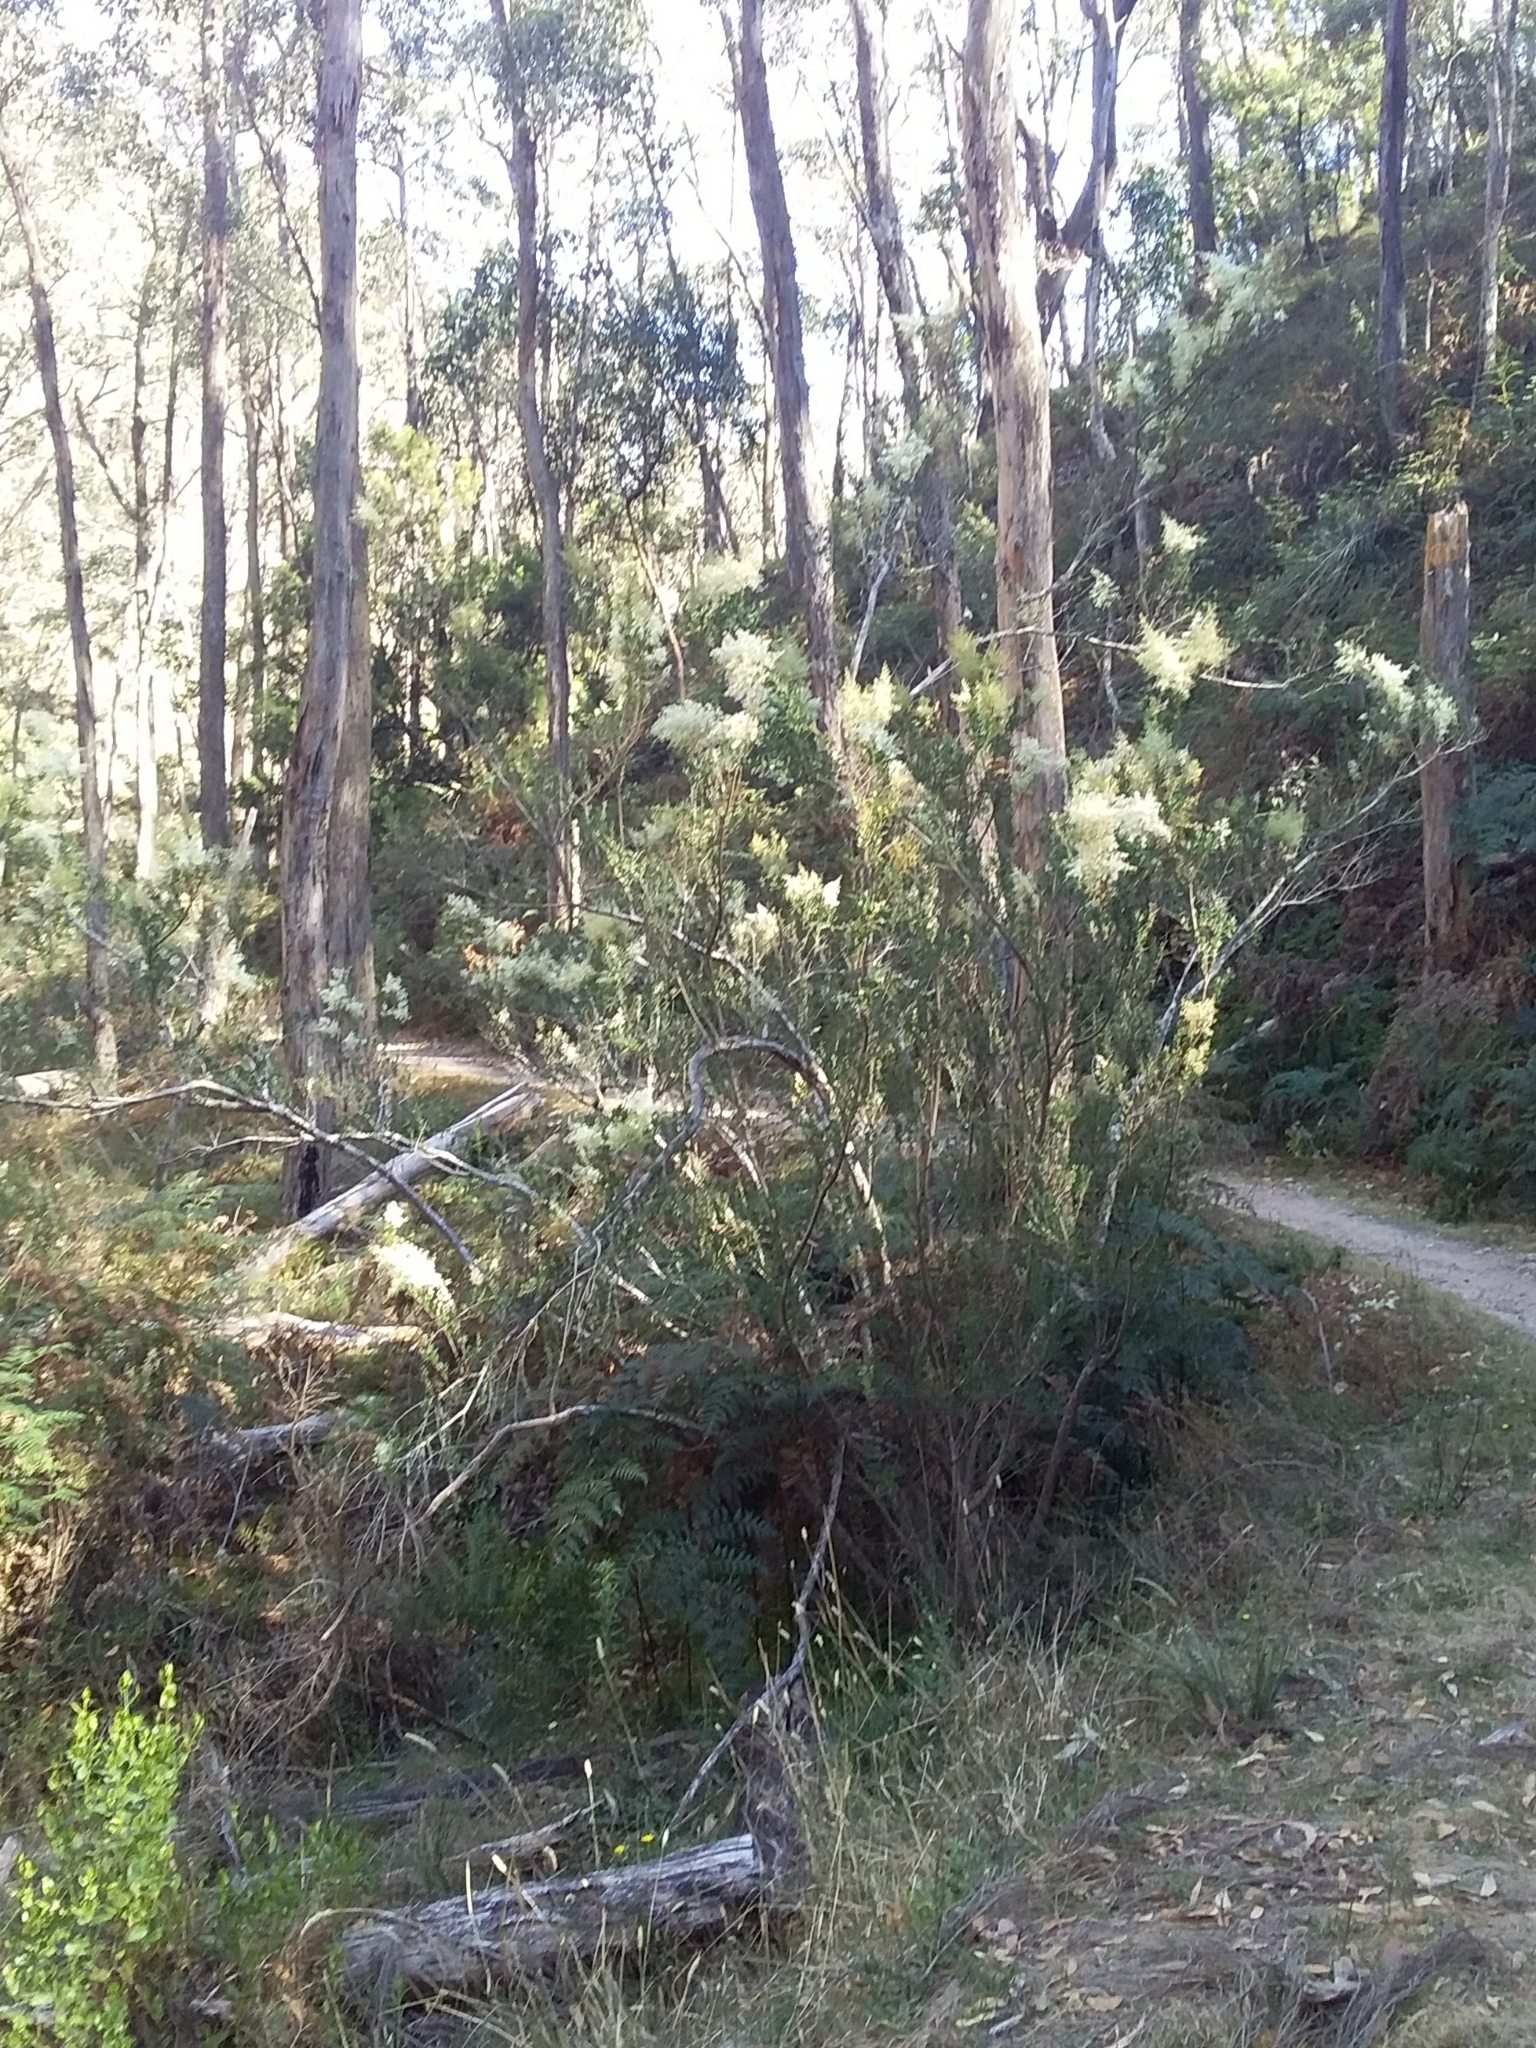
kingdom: Plantae
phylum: Tracheophyta
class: Magnoliopsida
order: Apiales
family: Pittosporaceae
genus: Bursaria
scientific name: Bursaria spinosa
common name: Australian blackthorn
